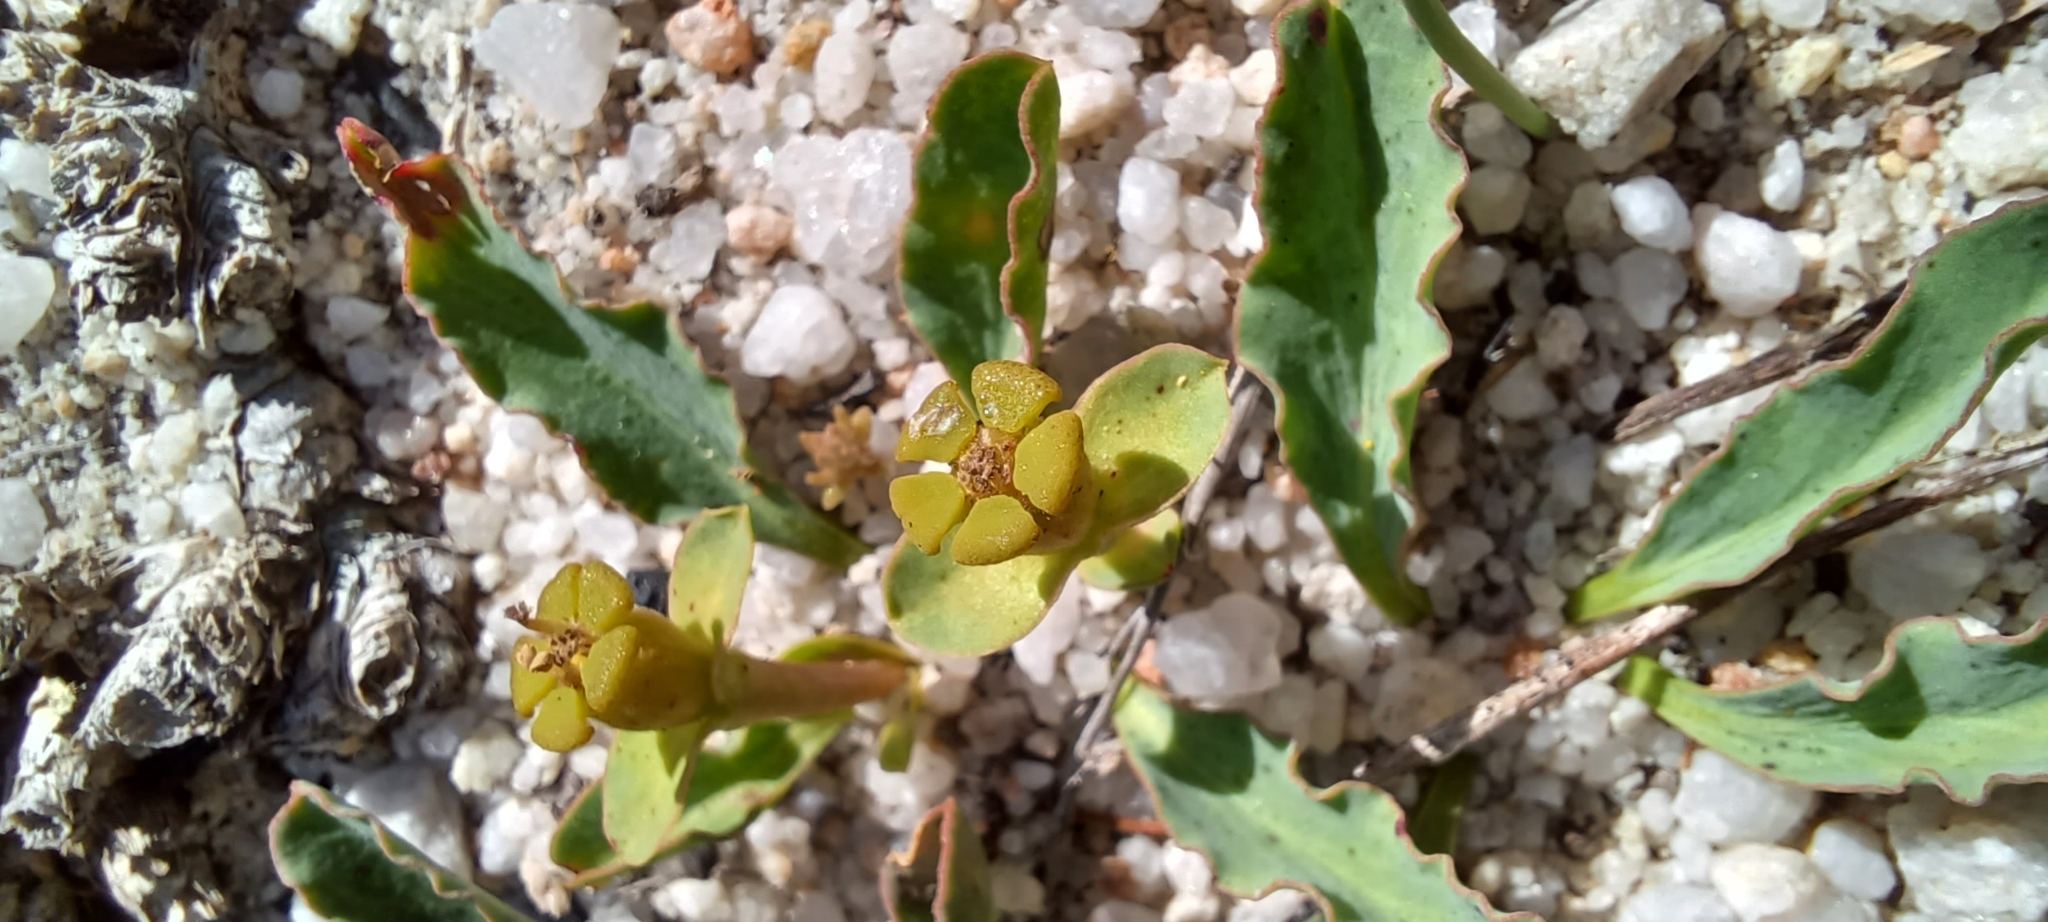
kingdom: Plantae
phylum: Tracheophyta
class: Magnoliopsida
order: Malpighiales
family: Euphorbiaceae
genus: Euphorbia
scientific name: Euphorbia tuberosa
